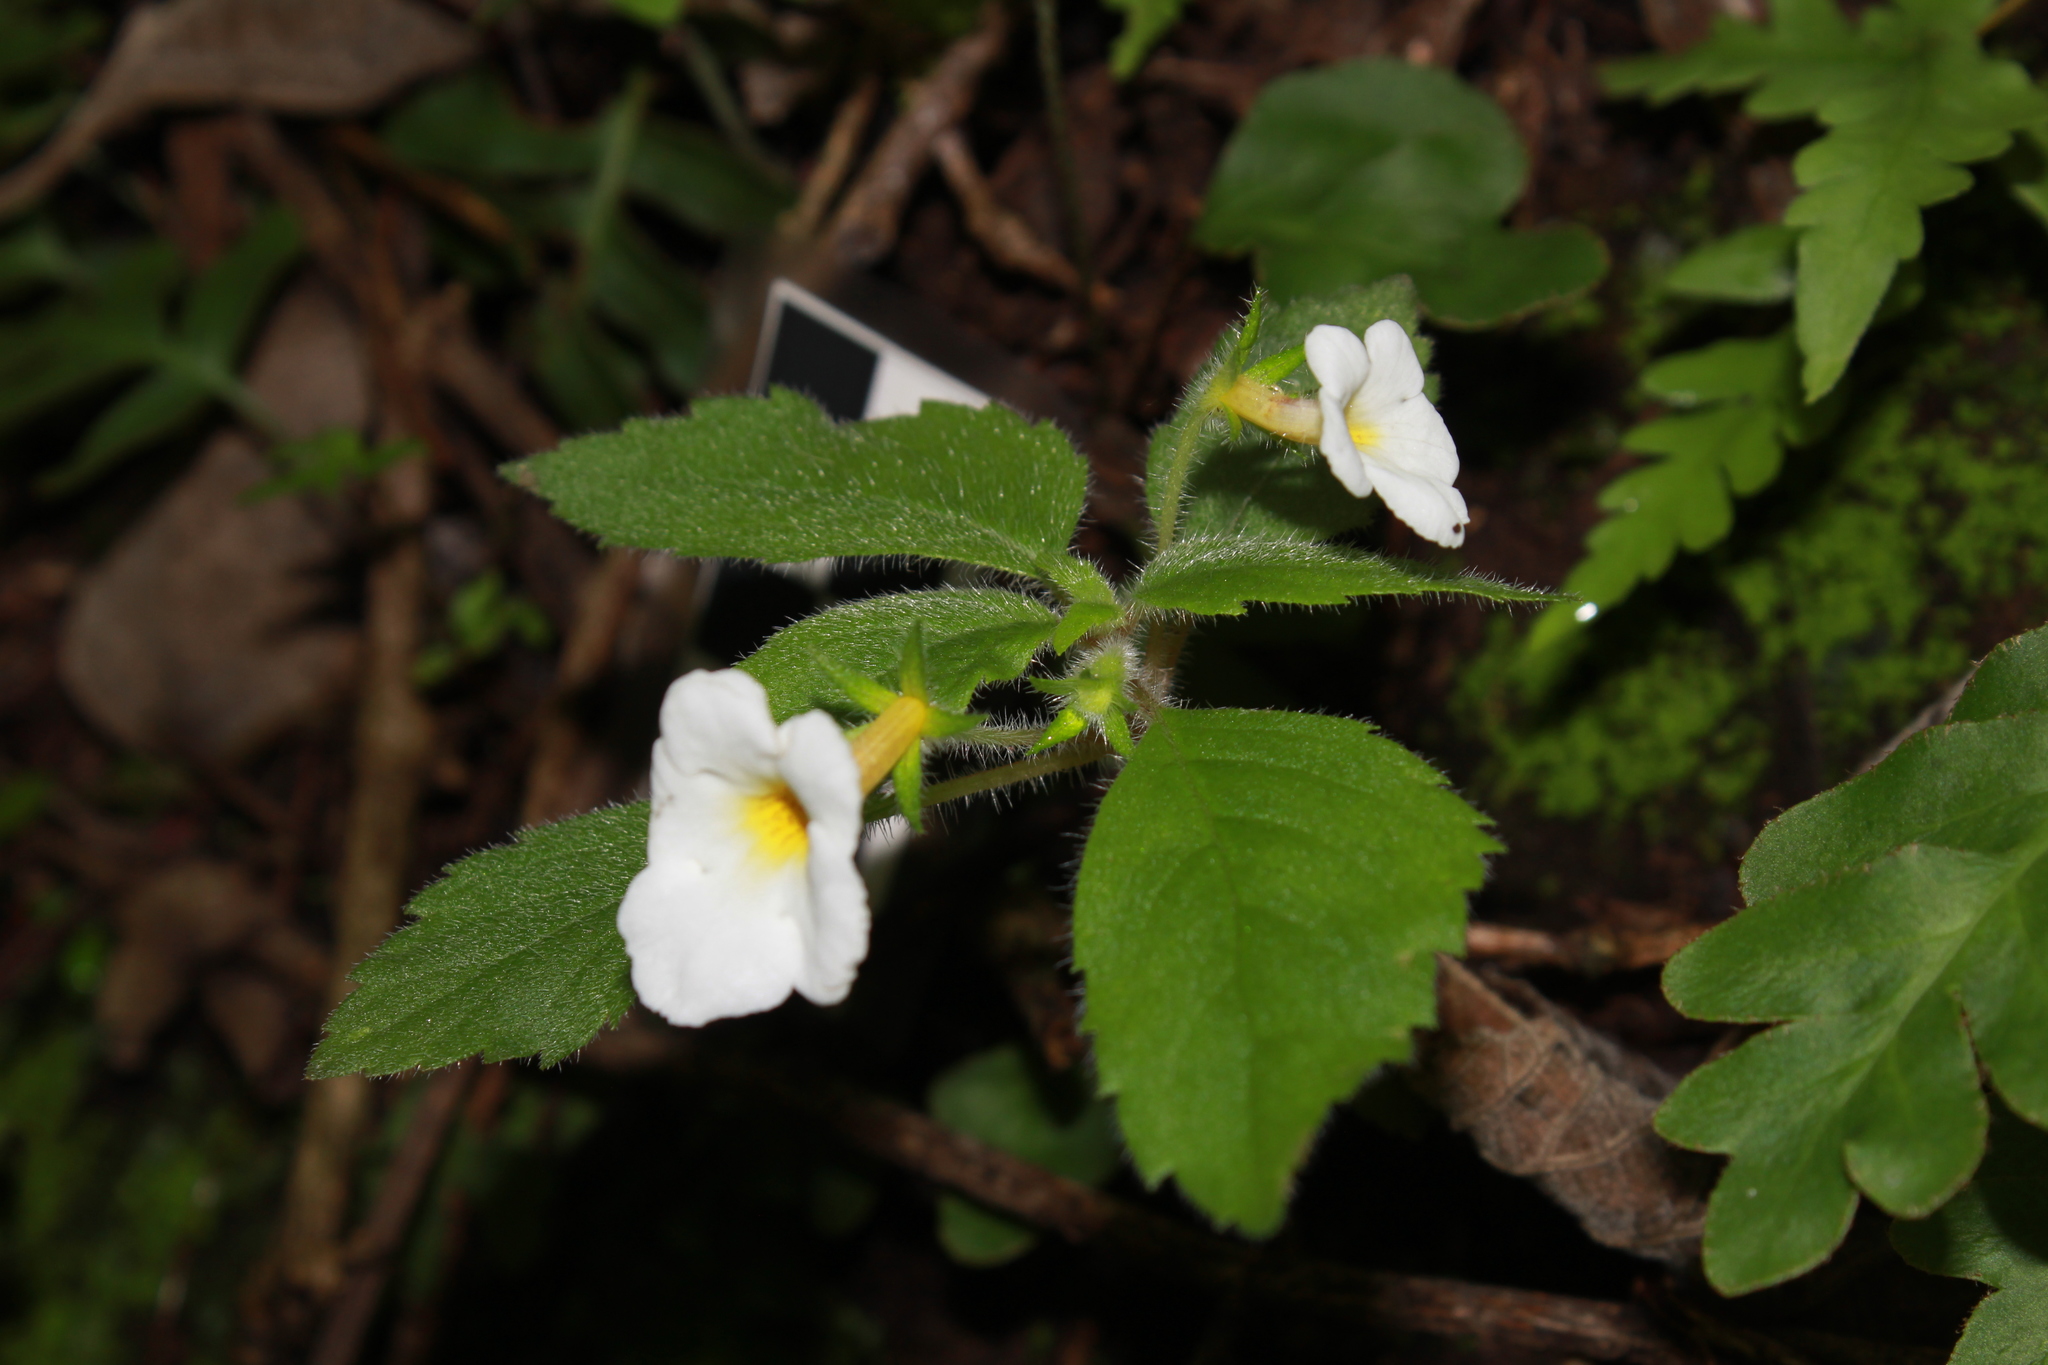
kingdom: Plantae
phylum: Tracheophyta
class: Magnoliopsida
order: Lamiales
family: Gesneriaceae
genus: Achimenes
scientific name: Achimenes occidentalis
